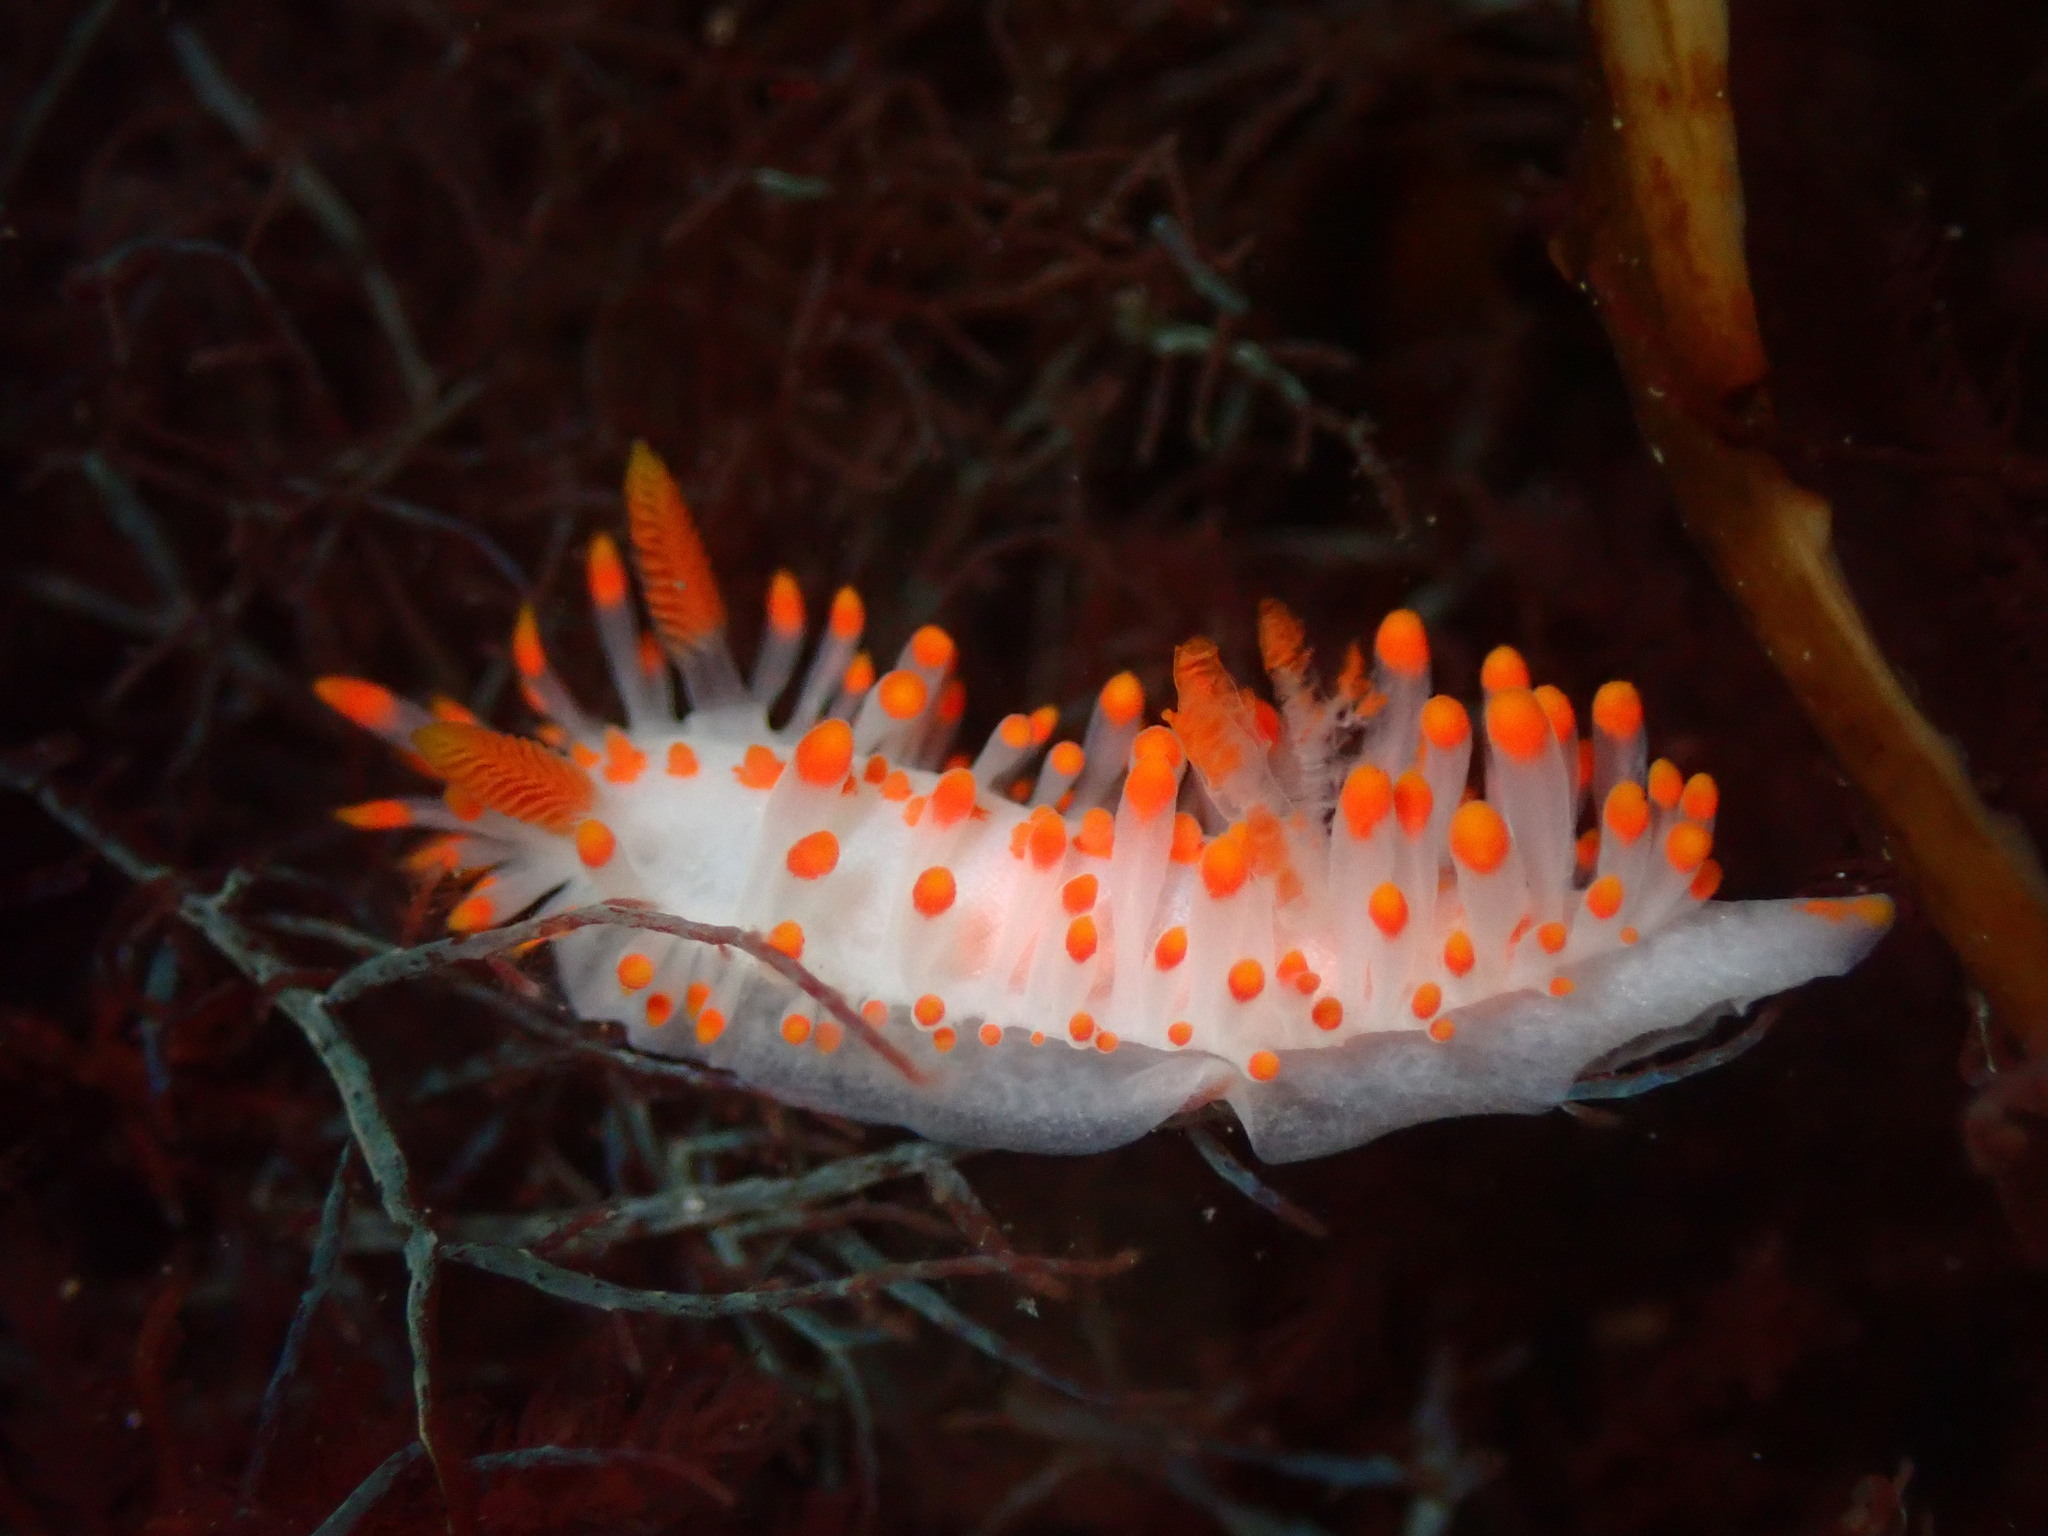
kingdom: Animalia
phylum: Mollusca
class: Gastropoda
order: Nudibranchia
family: Polyceridae
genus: Limacia
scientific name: Limacia mcdonaldi
